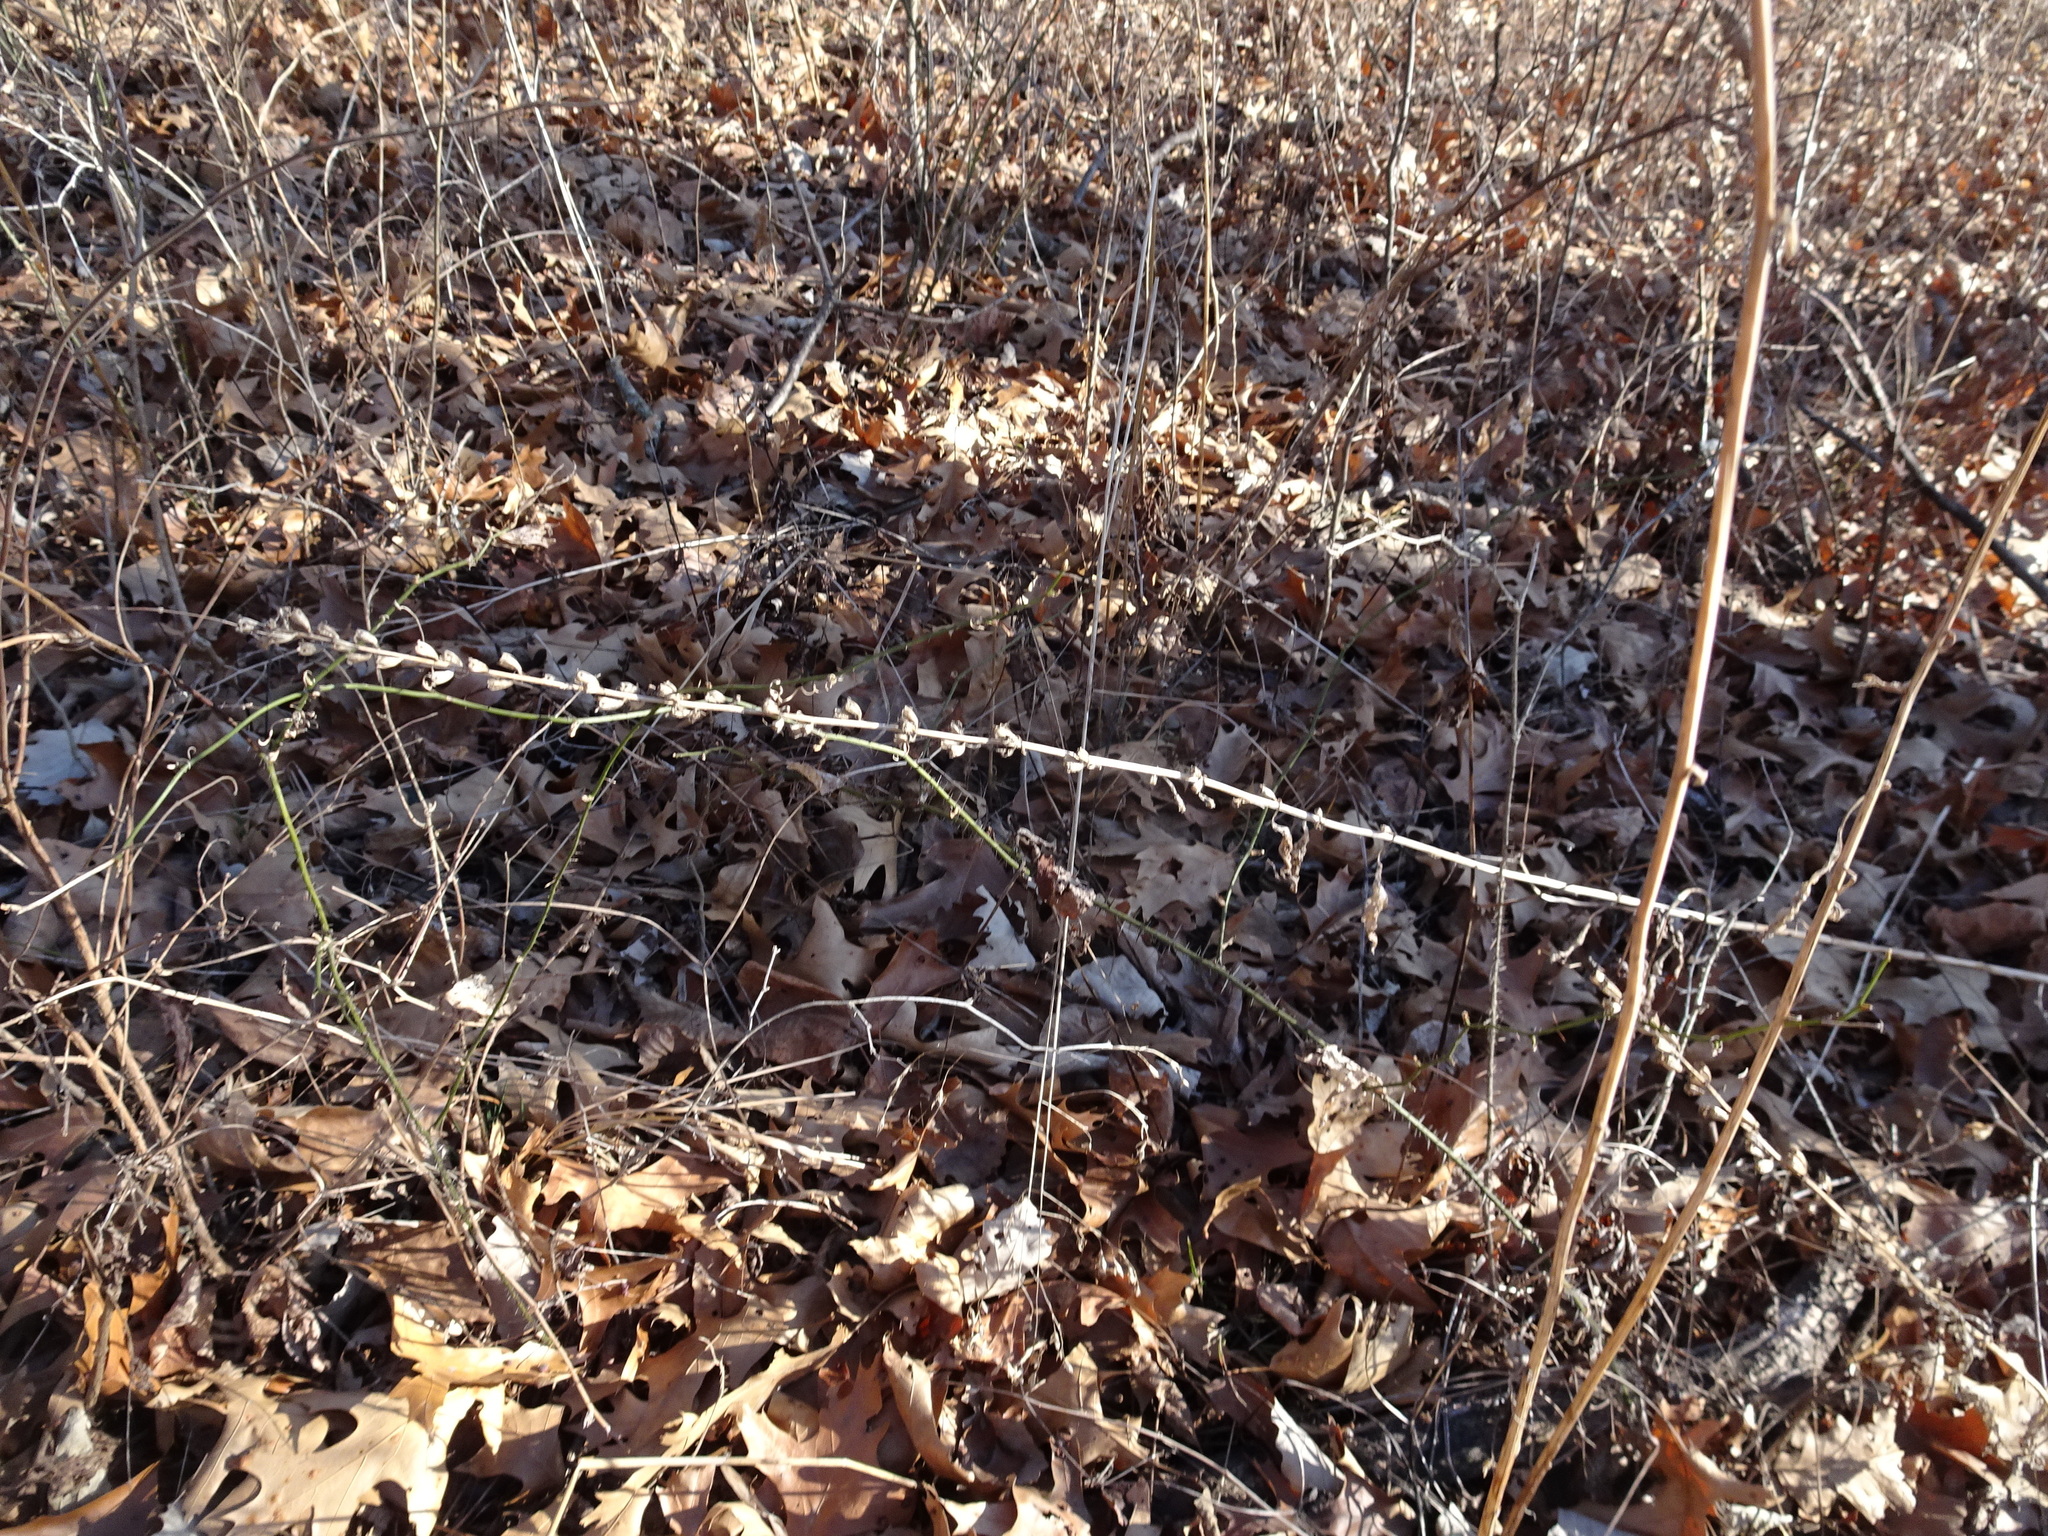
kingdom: Plantae
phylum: Tracheophyta
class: Magnoliopsida
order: Asterales
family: Campanulaceae
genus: Campanulastrum
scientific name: Campanulastrum americanum
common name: American bellflower
